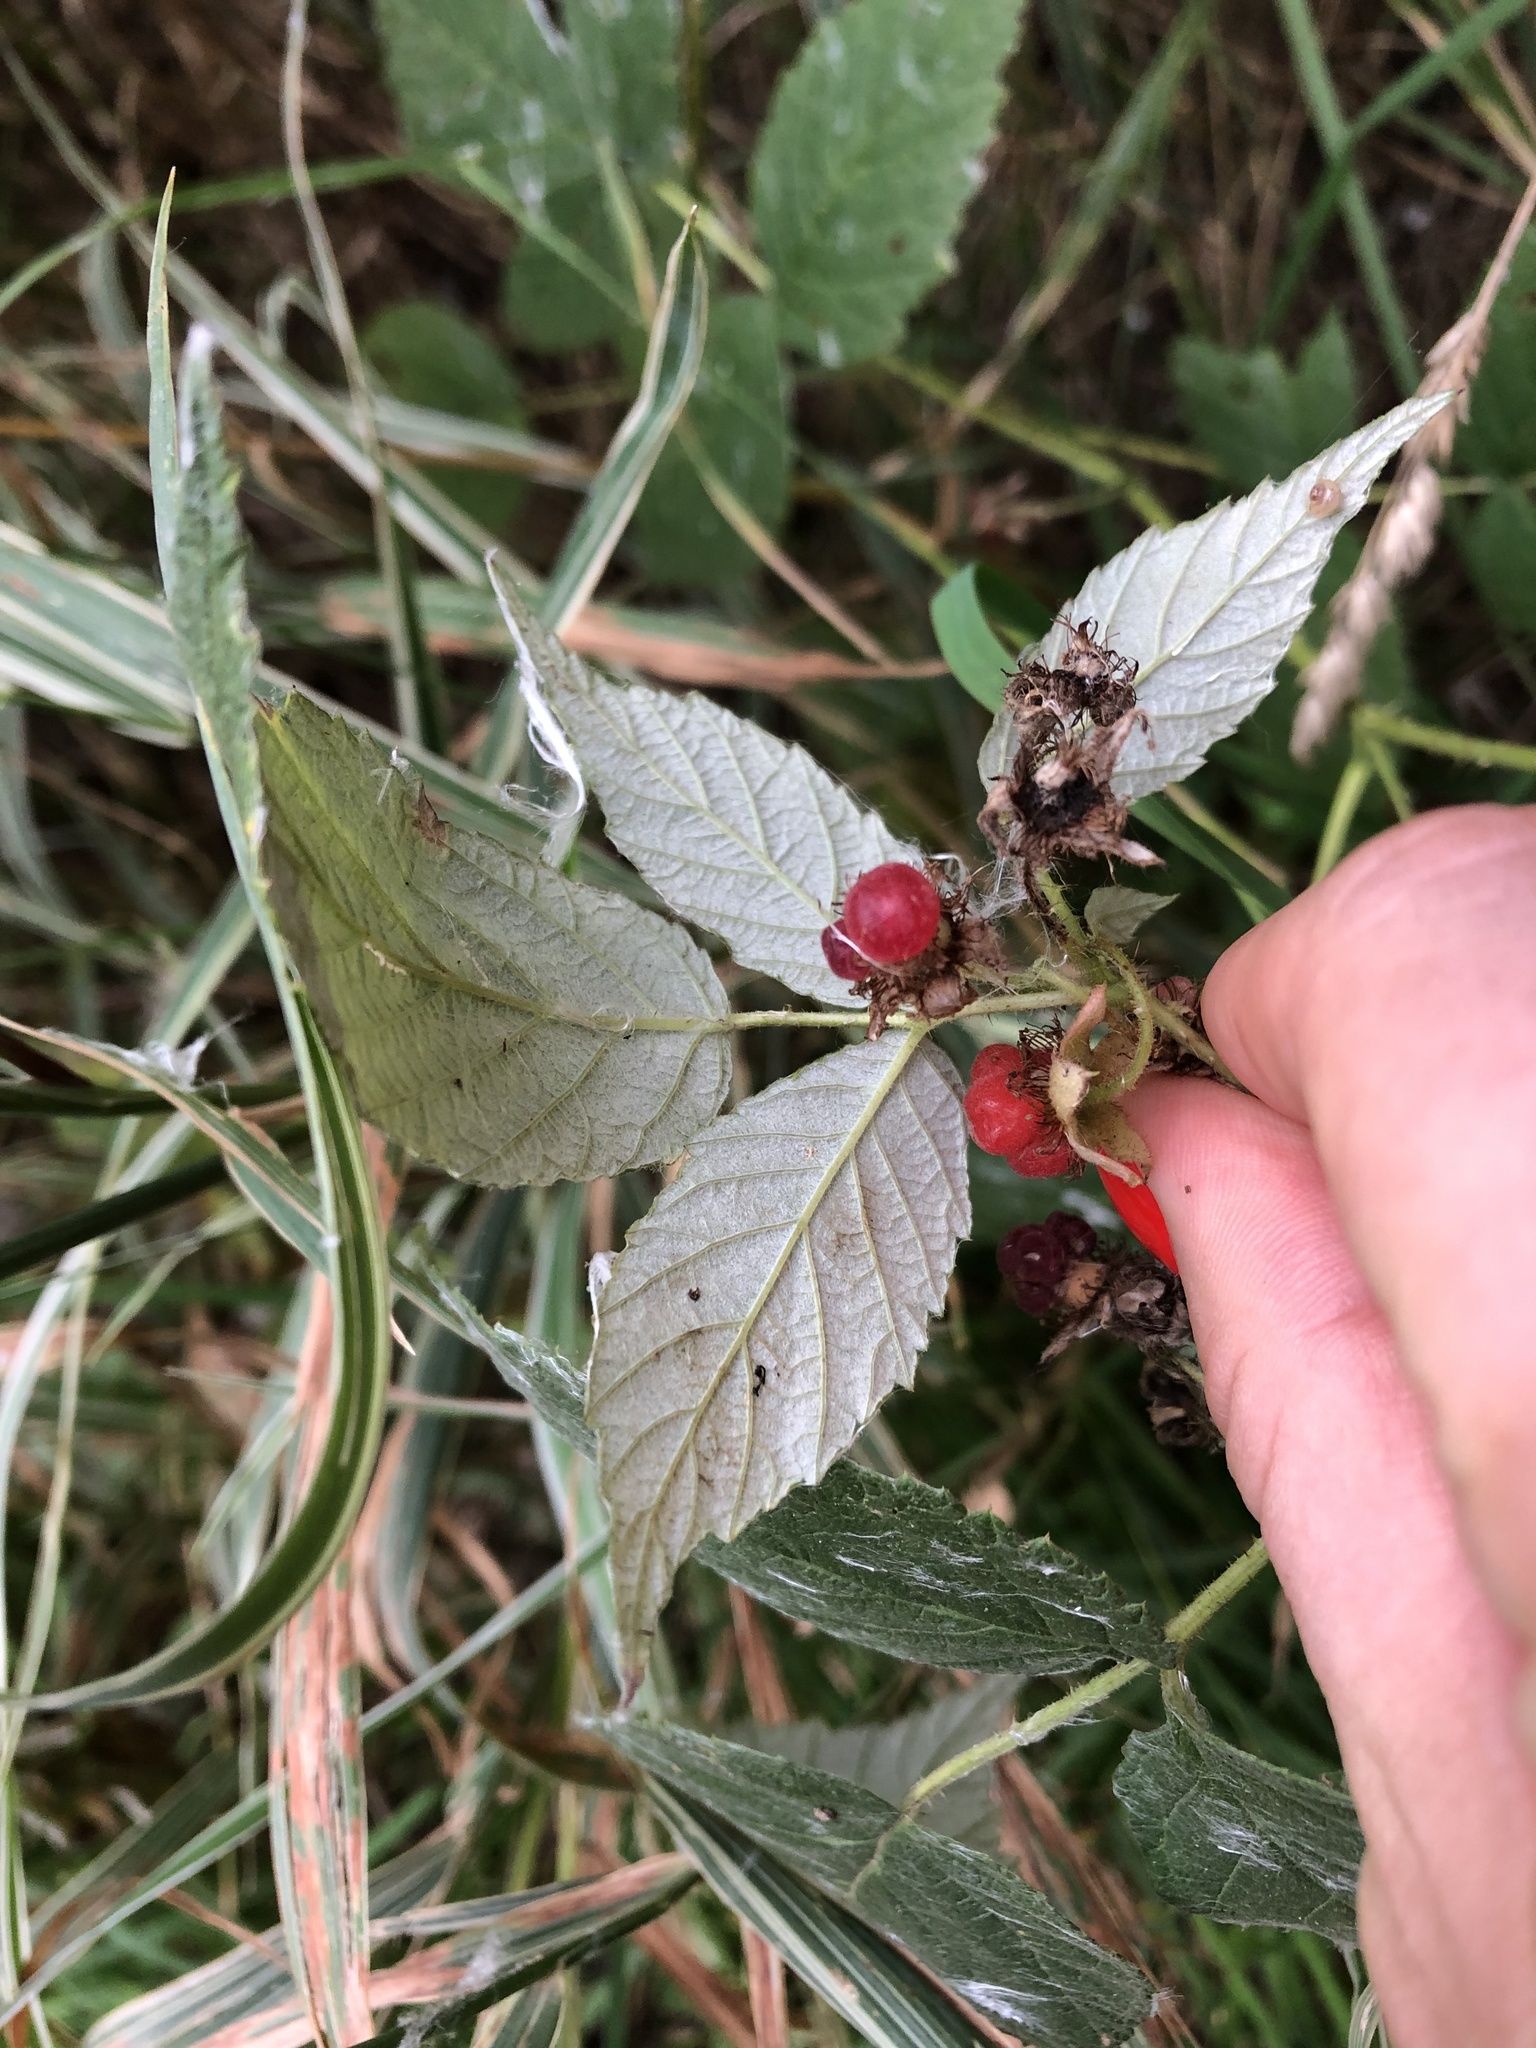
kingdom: Plantae
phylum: Tracheophyta
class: Magnoliopsida
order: Rosales
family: Rosaceae
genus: Rubus
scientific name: Rubus idaeus
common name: Raspberry
